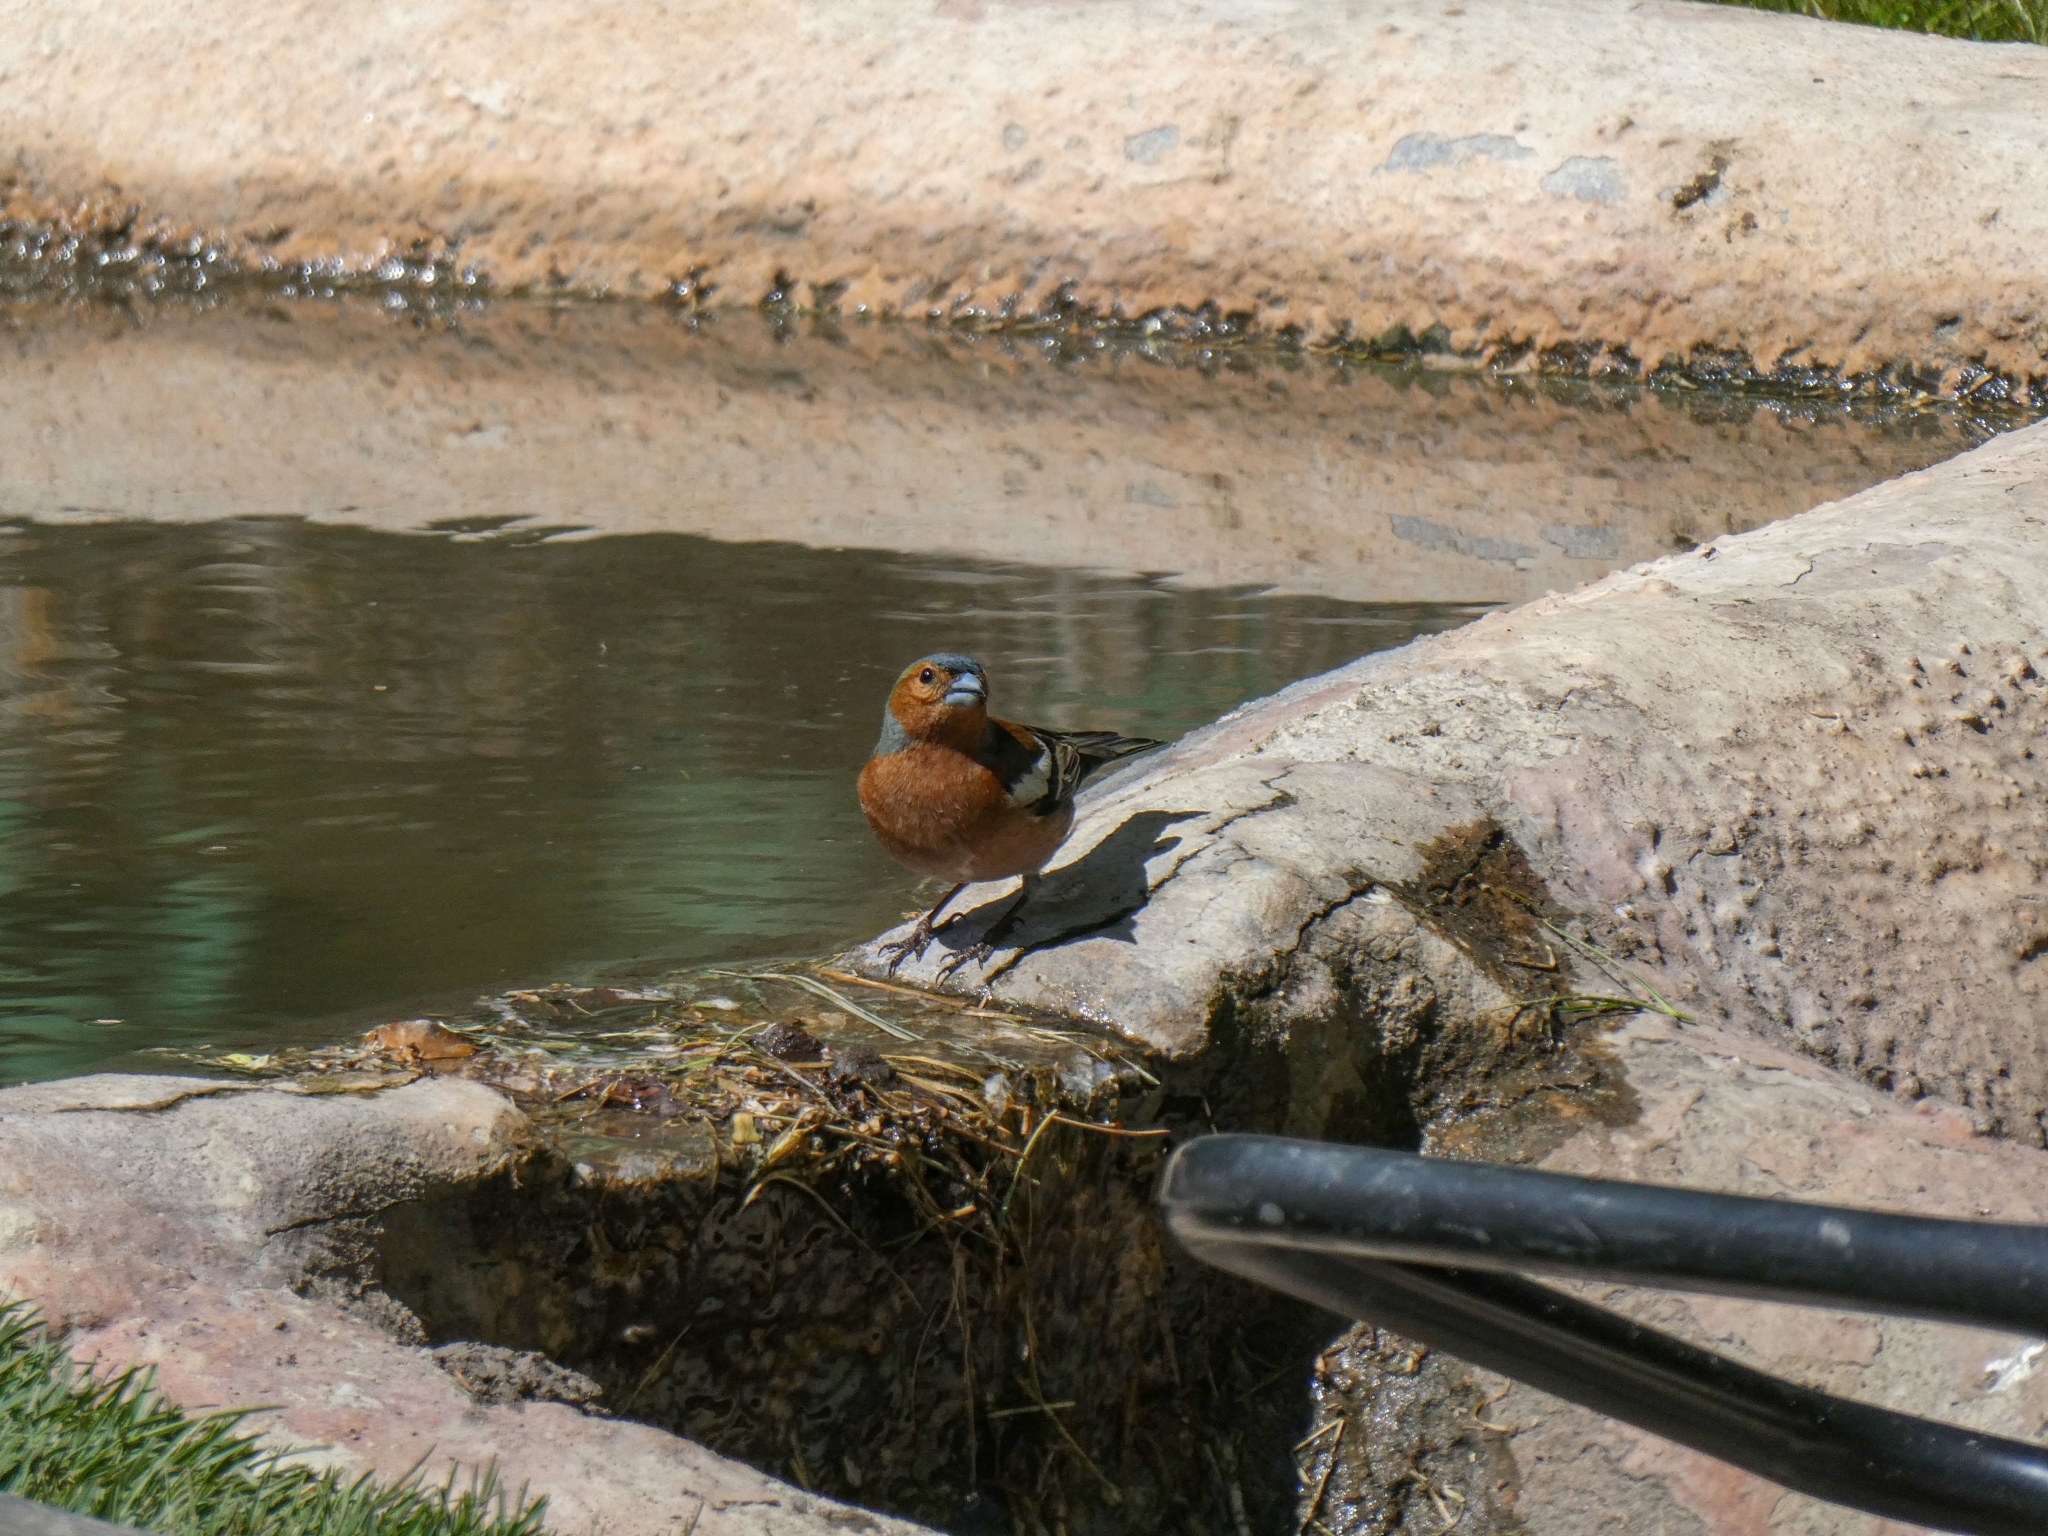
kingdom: Animalia
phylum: Chordata
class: Aves
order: Passeriformes
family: Fringillidae
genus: Fringilla
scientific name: Fringilla coelebs
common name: Common chaffinch
